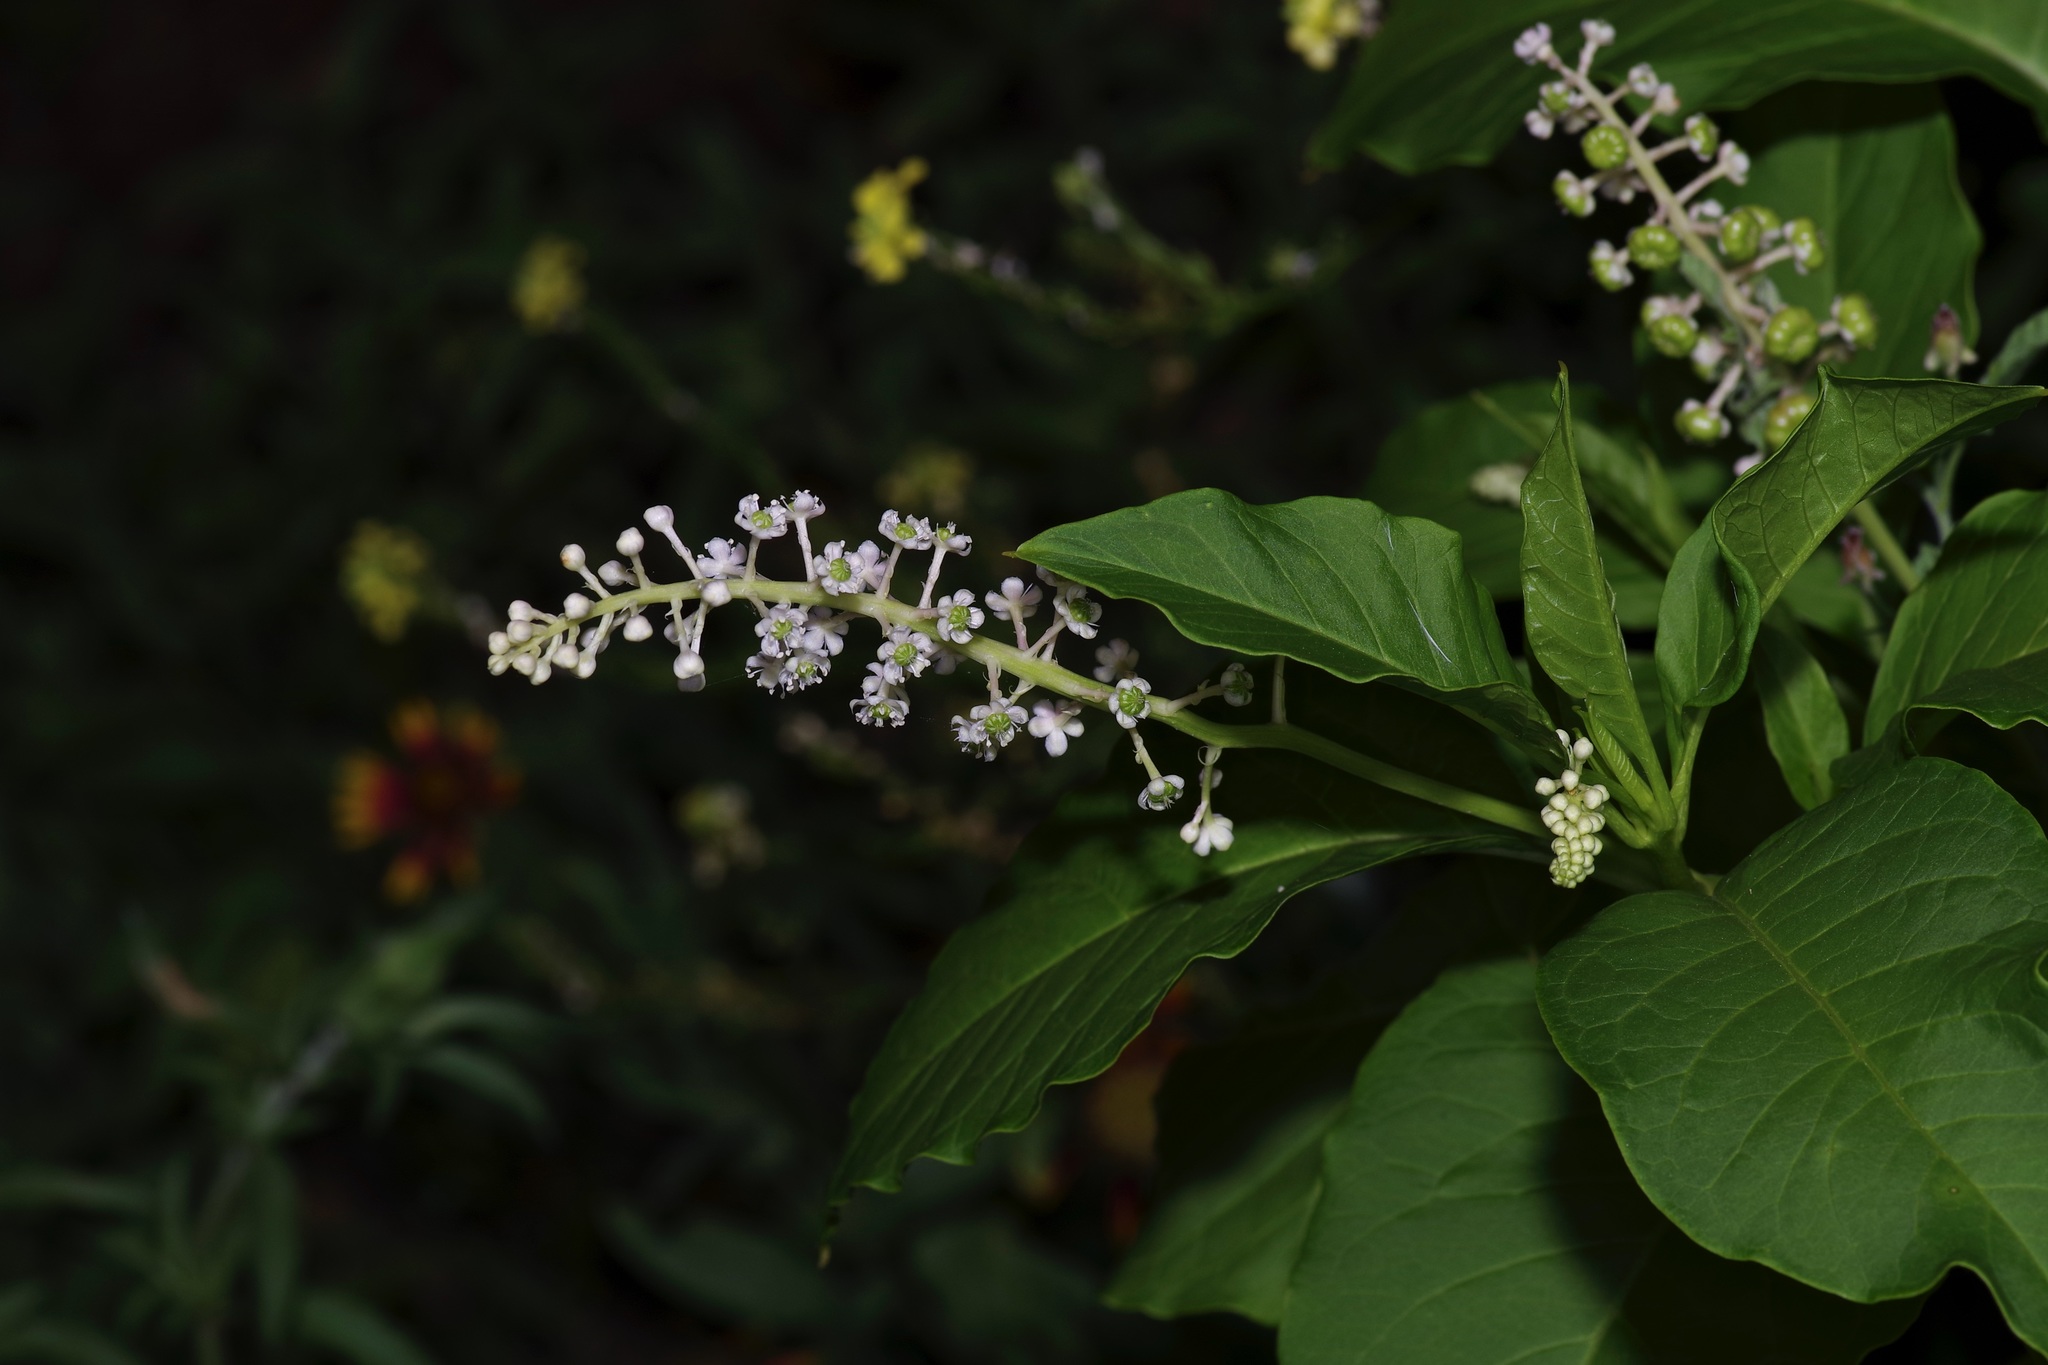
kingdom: Plantae
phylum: Tracheophyta
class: Magnoliopsida
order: Caryophyllales
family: Phytolaccaceae
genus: Phytolacca
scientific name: Phytolacca americana
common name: American pokeweed
